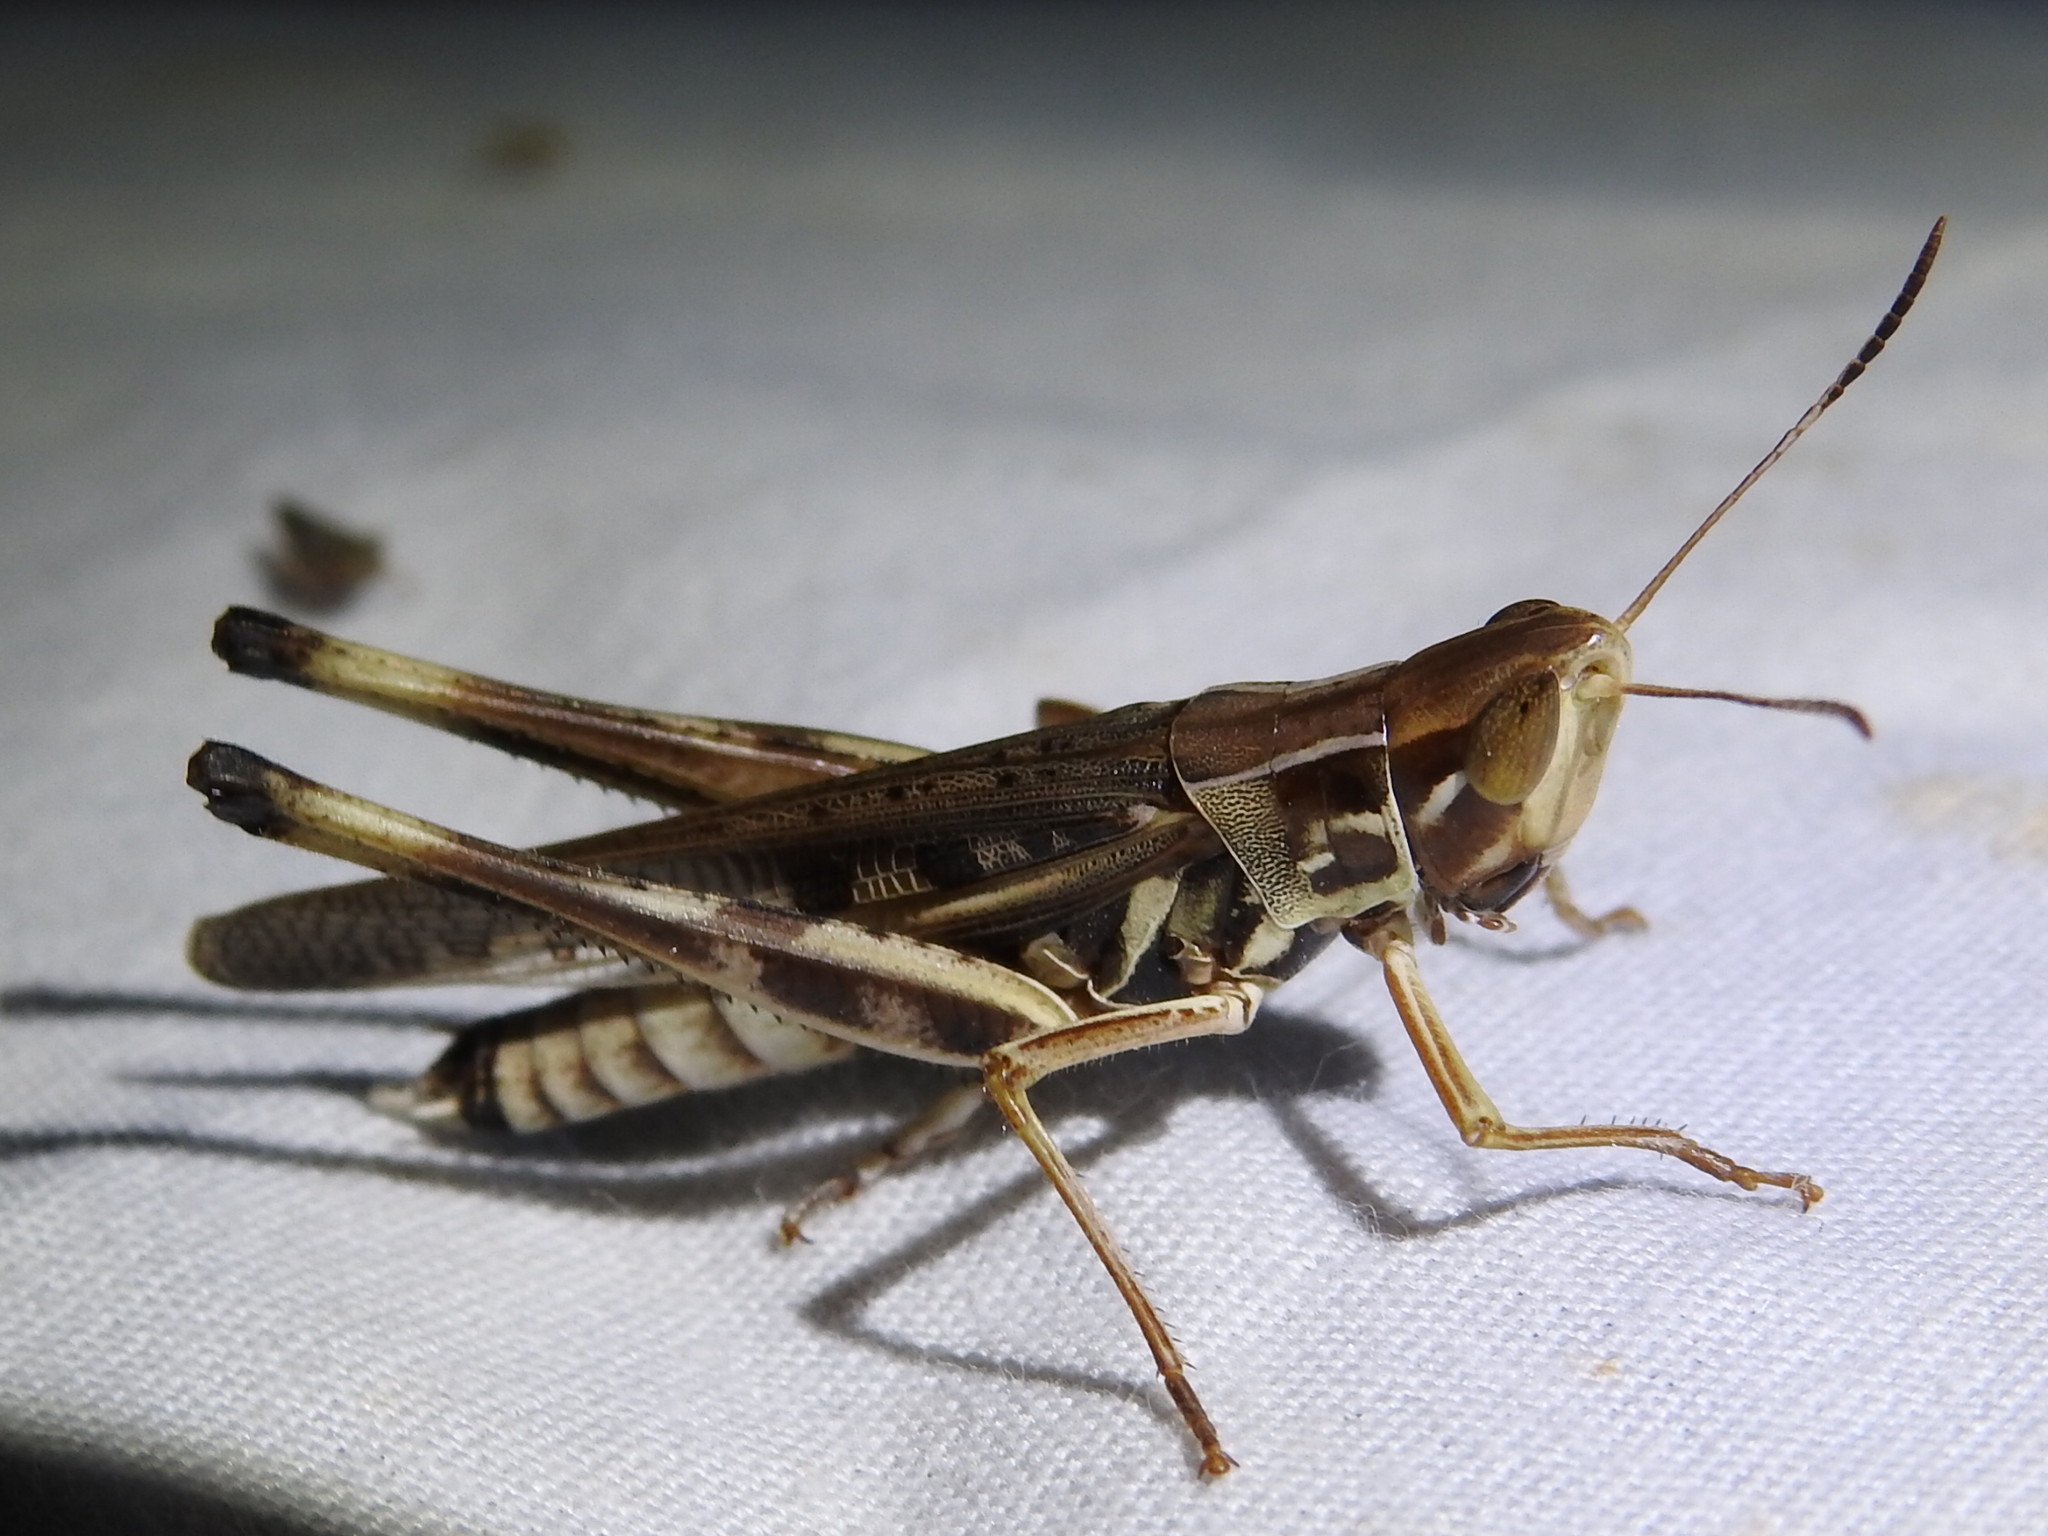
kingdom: Animalia
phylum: Arthropoda
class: Insecta
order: Orthoptera
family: Acrididae
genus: Syrbula
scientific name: Syrbula admirabilis
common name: Handsome grasshopper
